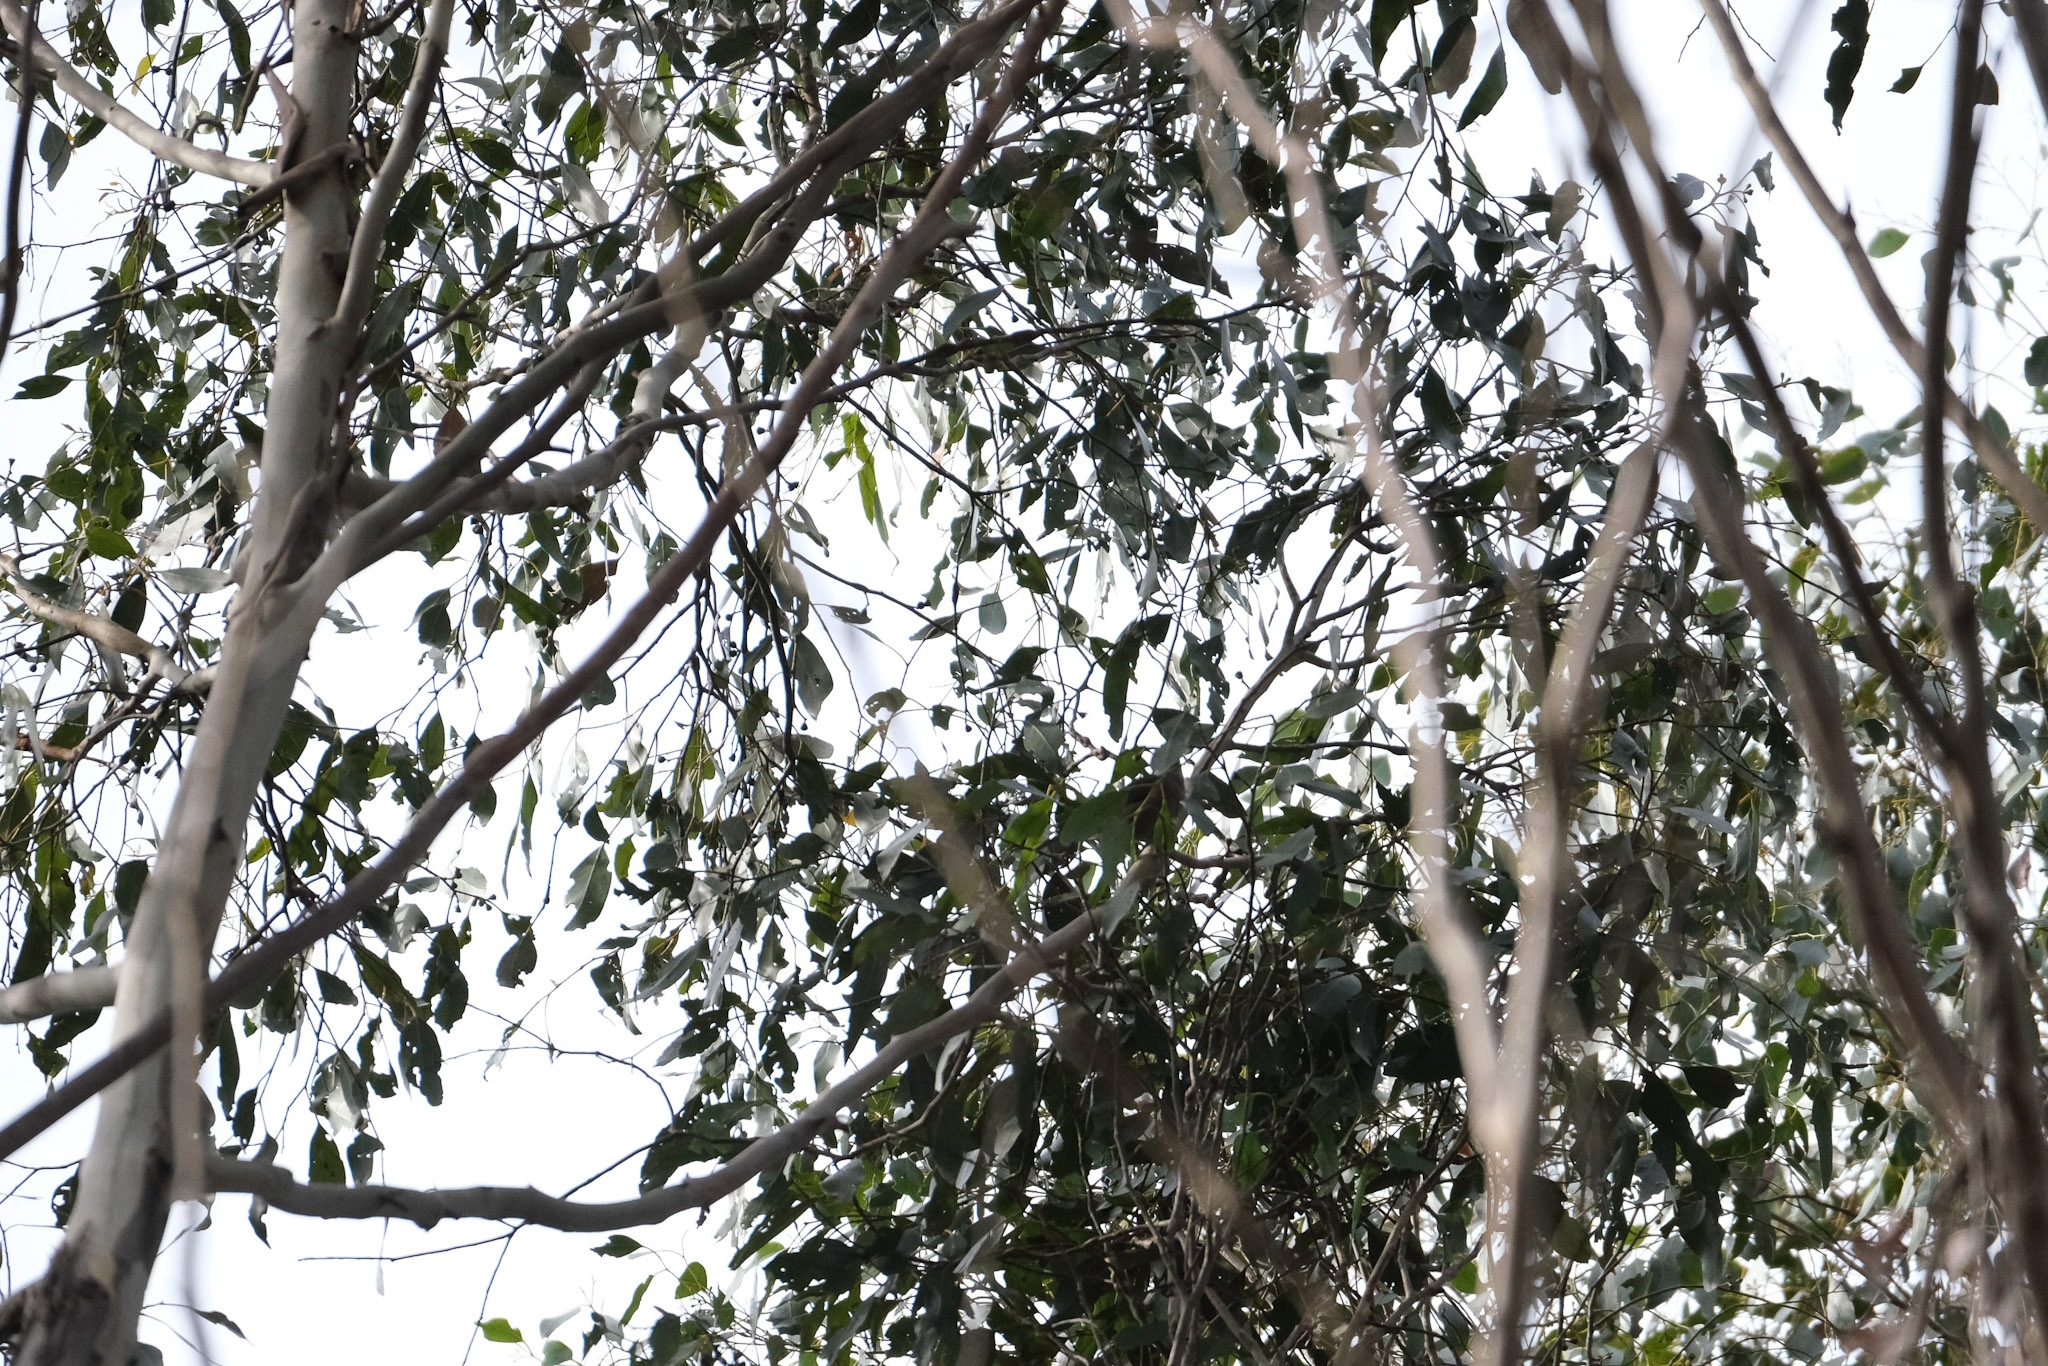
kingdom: Animalia
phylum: Chordata
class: Aves
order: Passeriformes
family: Meliphagidae
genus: Melithreptus
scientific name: Melithreptus validirostris
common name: Strong-billed honeyeater
